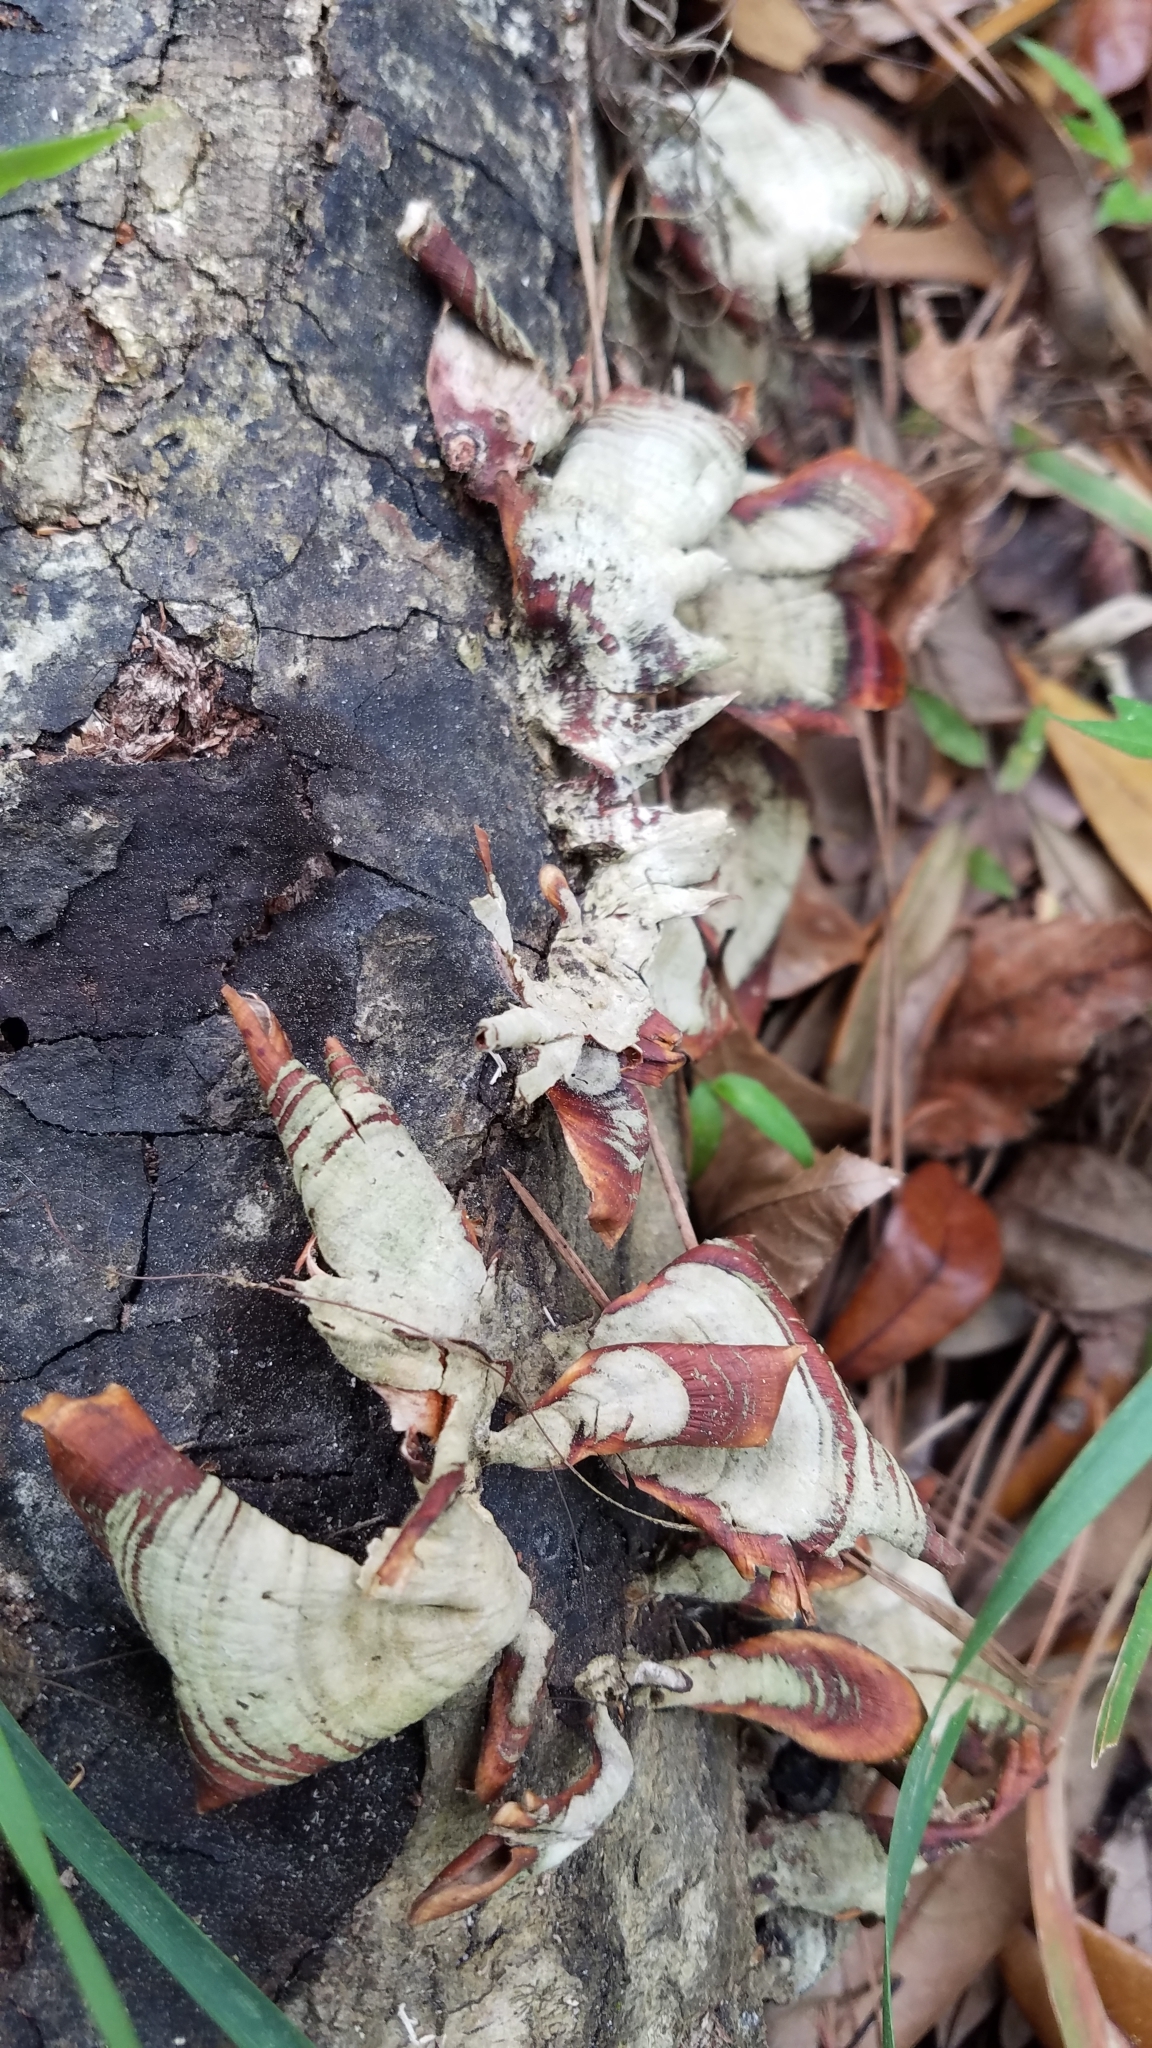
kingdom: Fungi
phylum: Basidiomycota
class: Agaricomycetes
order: Russulales
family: Stereaceae
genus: Stereum
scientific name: Stereum lobatum
